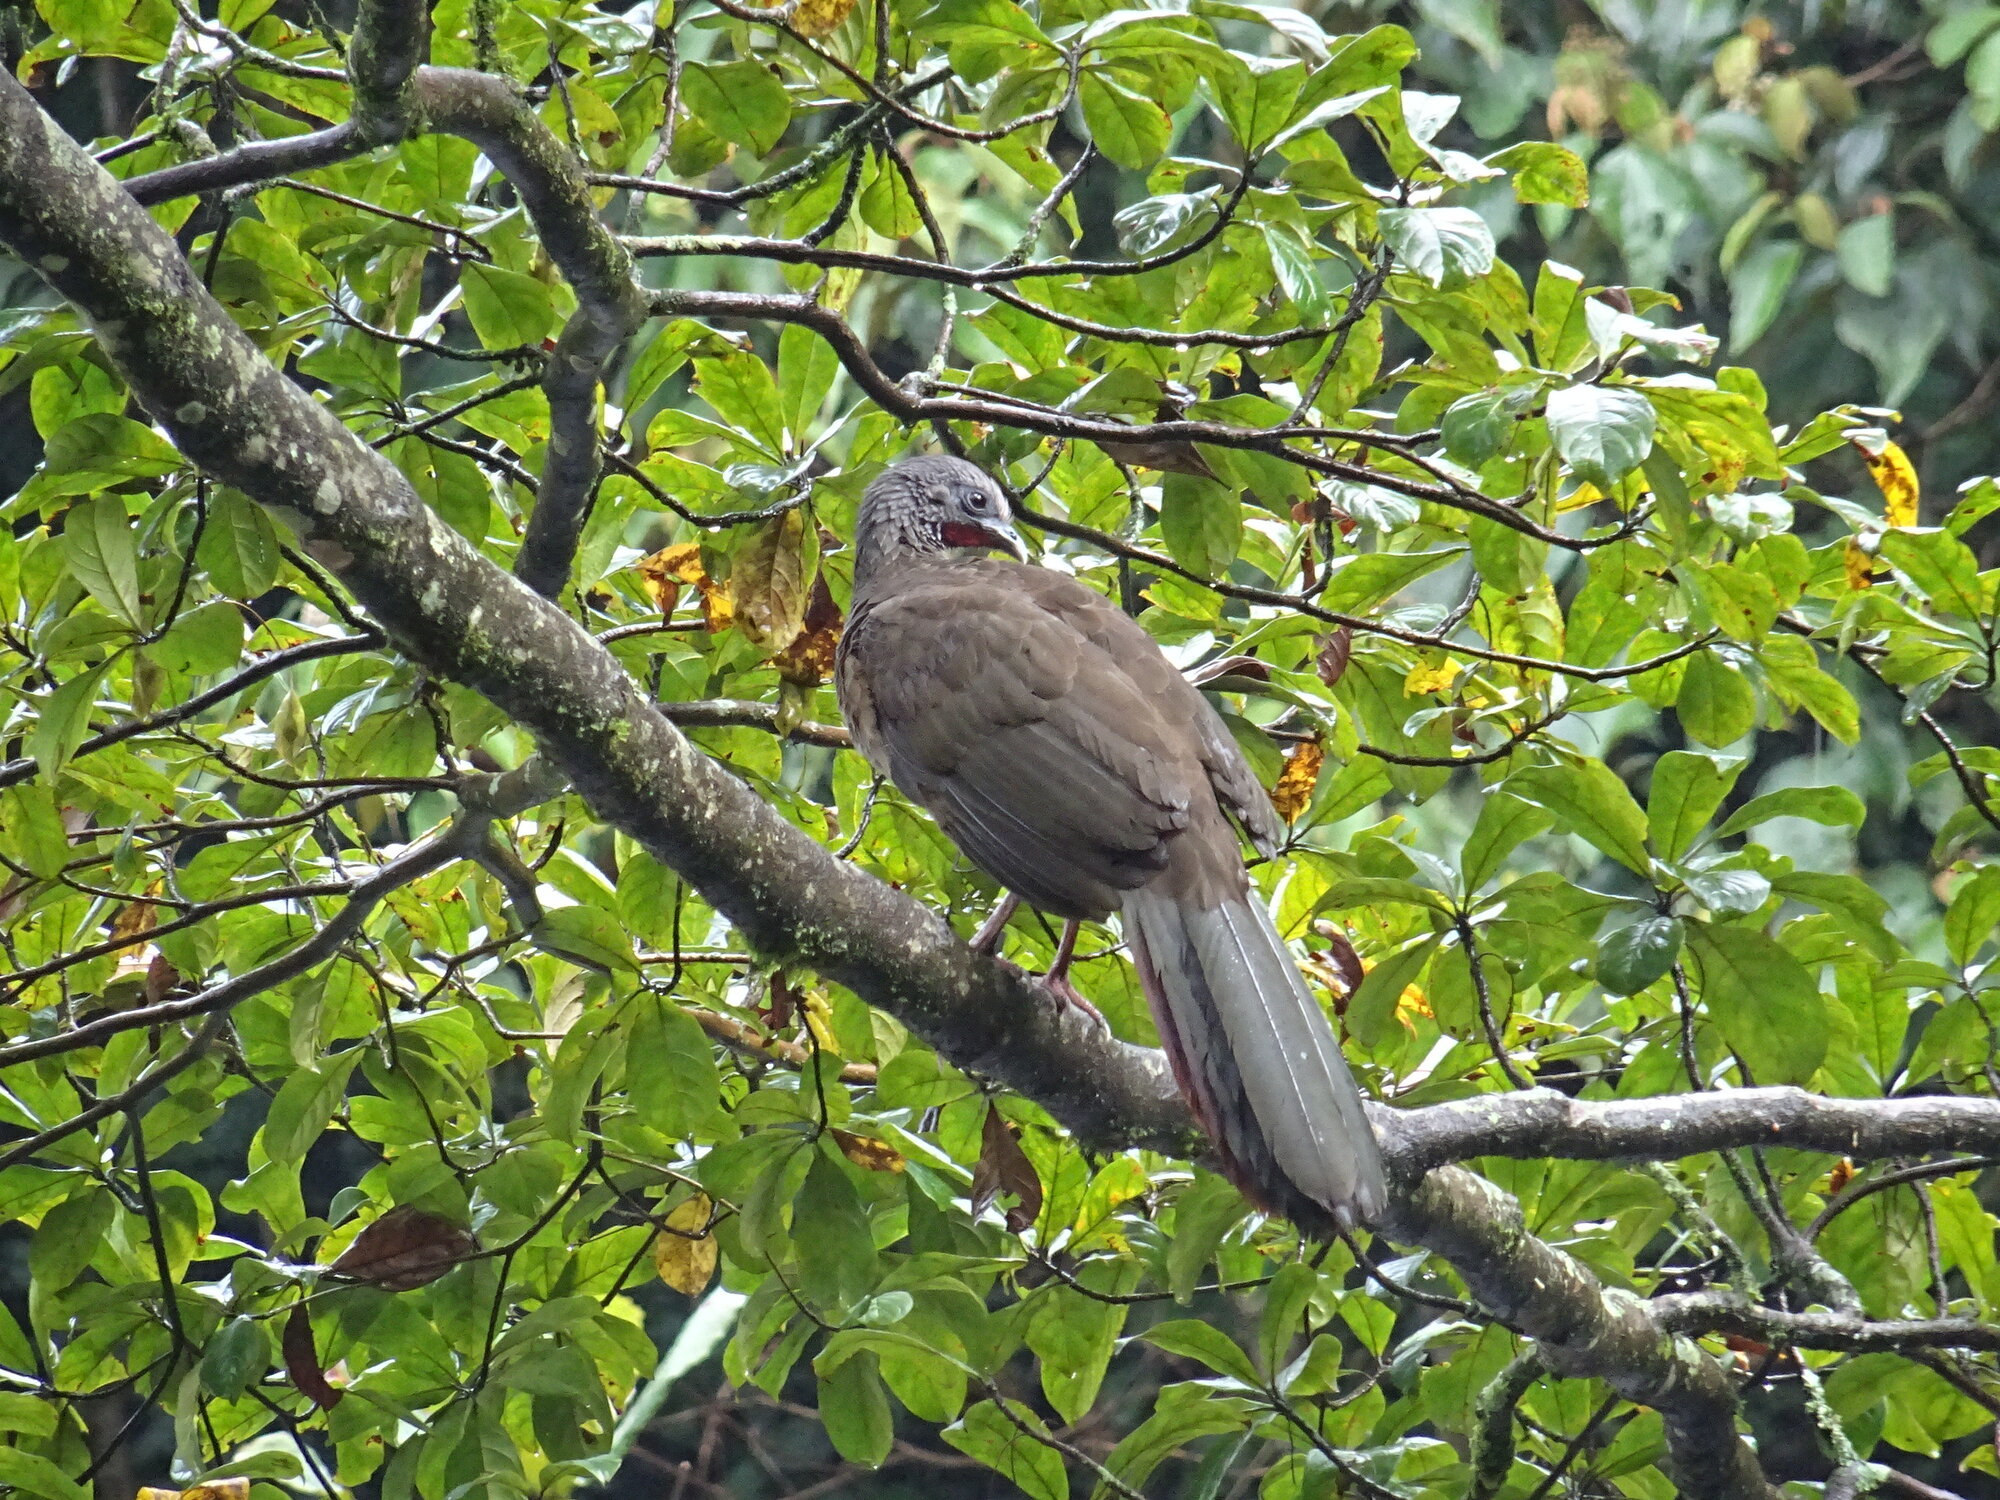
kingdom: Animalia
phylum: Chordata
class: Aves
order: Galliformes
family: Cracidae
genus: Ortalis
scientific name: Ortalis columbiana
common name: Colombian chachalaca
